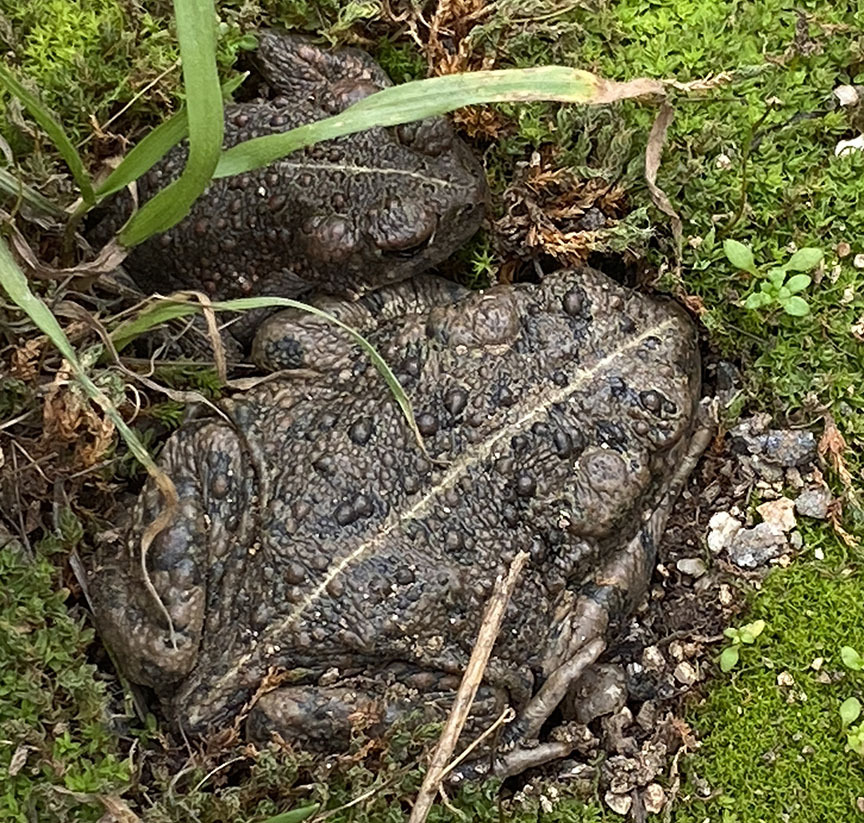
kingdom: Animalia
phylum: Chordata
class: Amphibia
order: Anura
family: Bufonidae
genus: Anaxyrus
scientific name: Anaxyrus boreas
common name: Western toad
